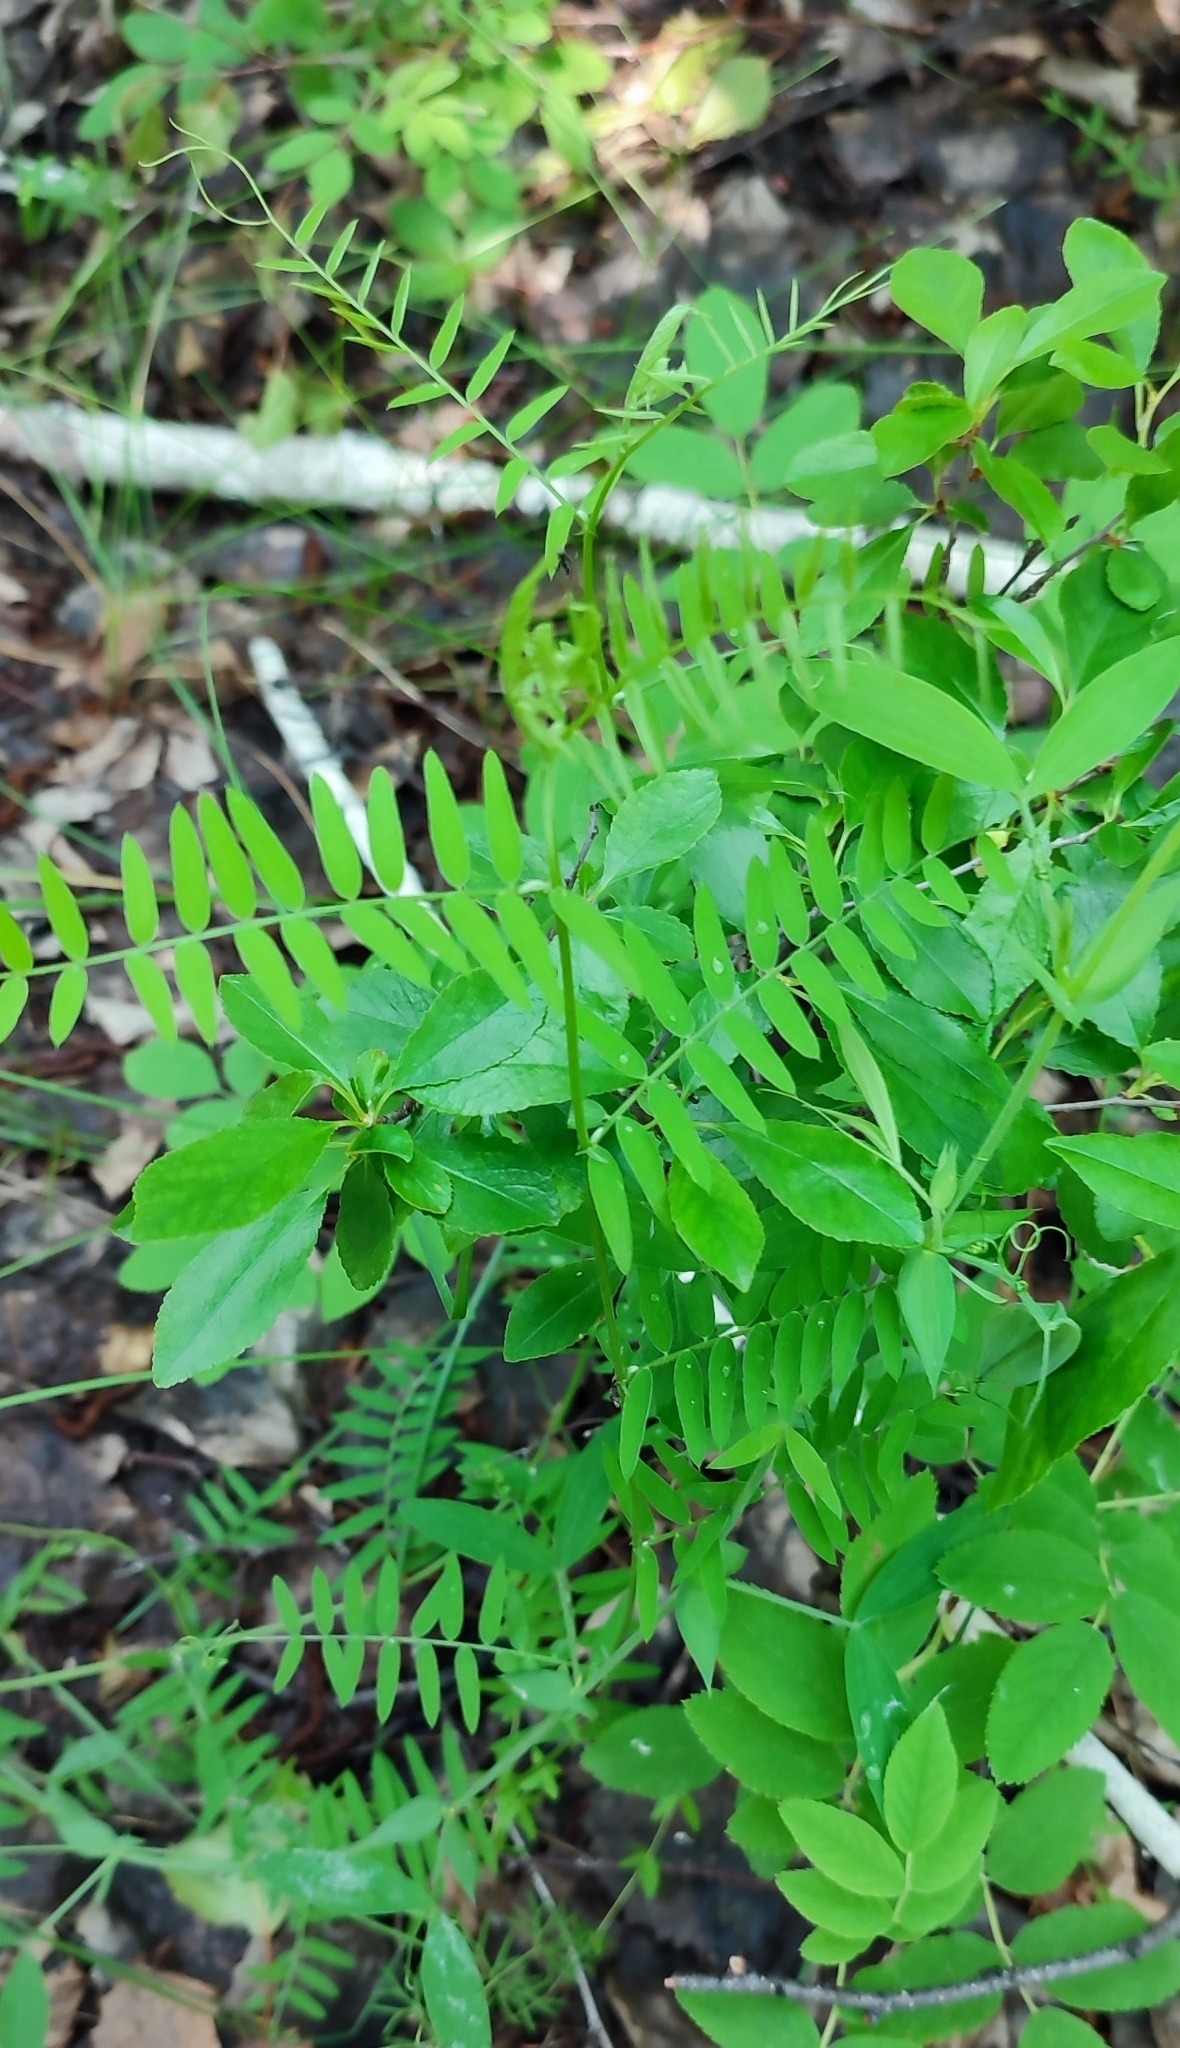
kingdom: Plantae
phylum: Tracheophyta
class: Magnoliopsida
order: Fabales
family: Fabaceae
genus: Vicia
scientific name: Vicia cracca
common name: Bird vetch
